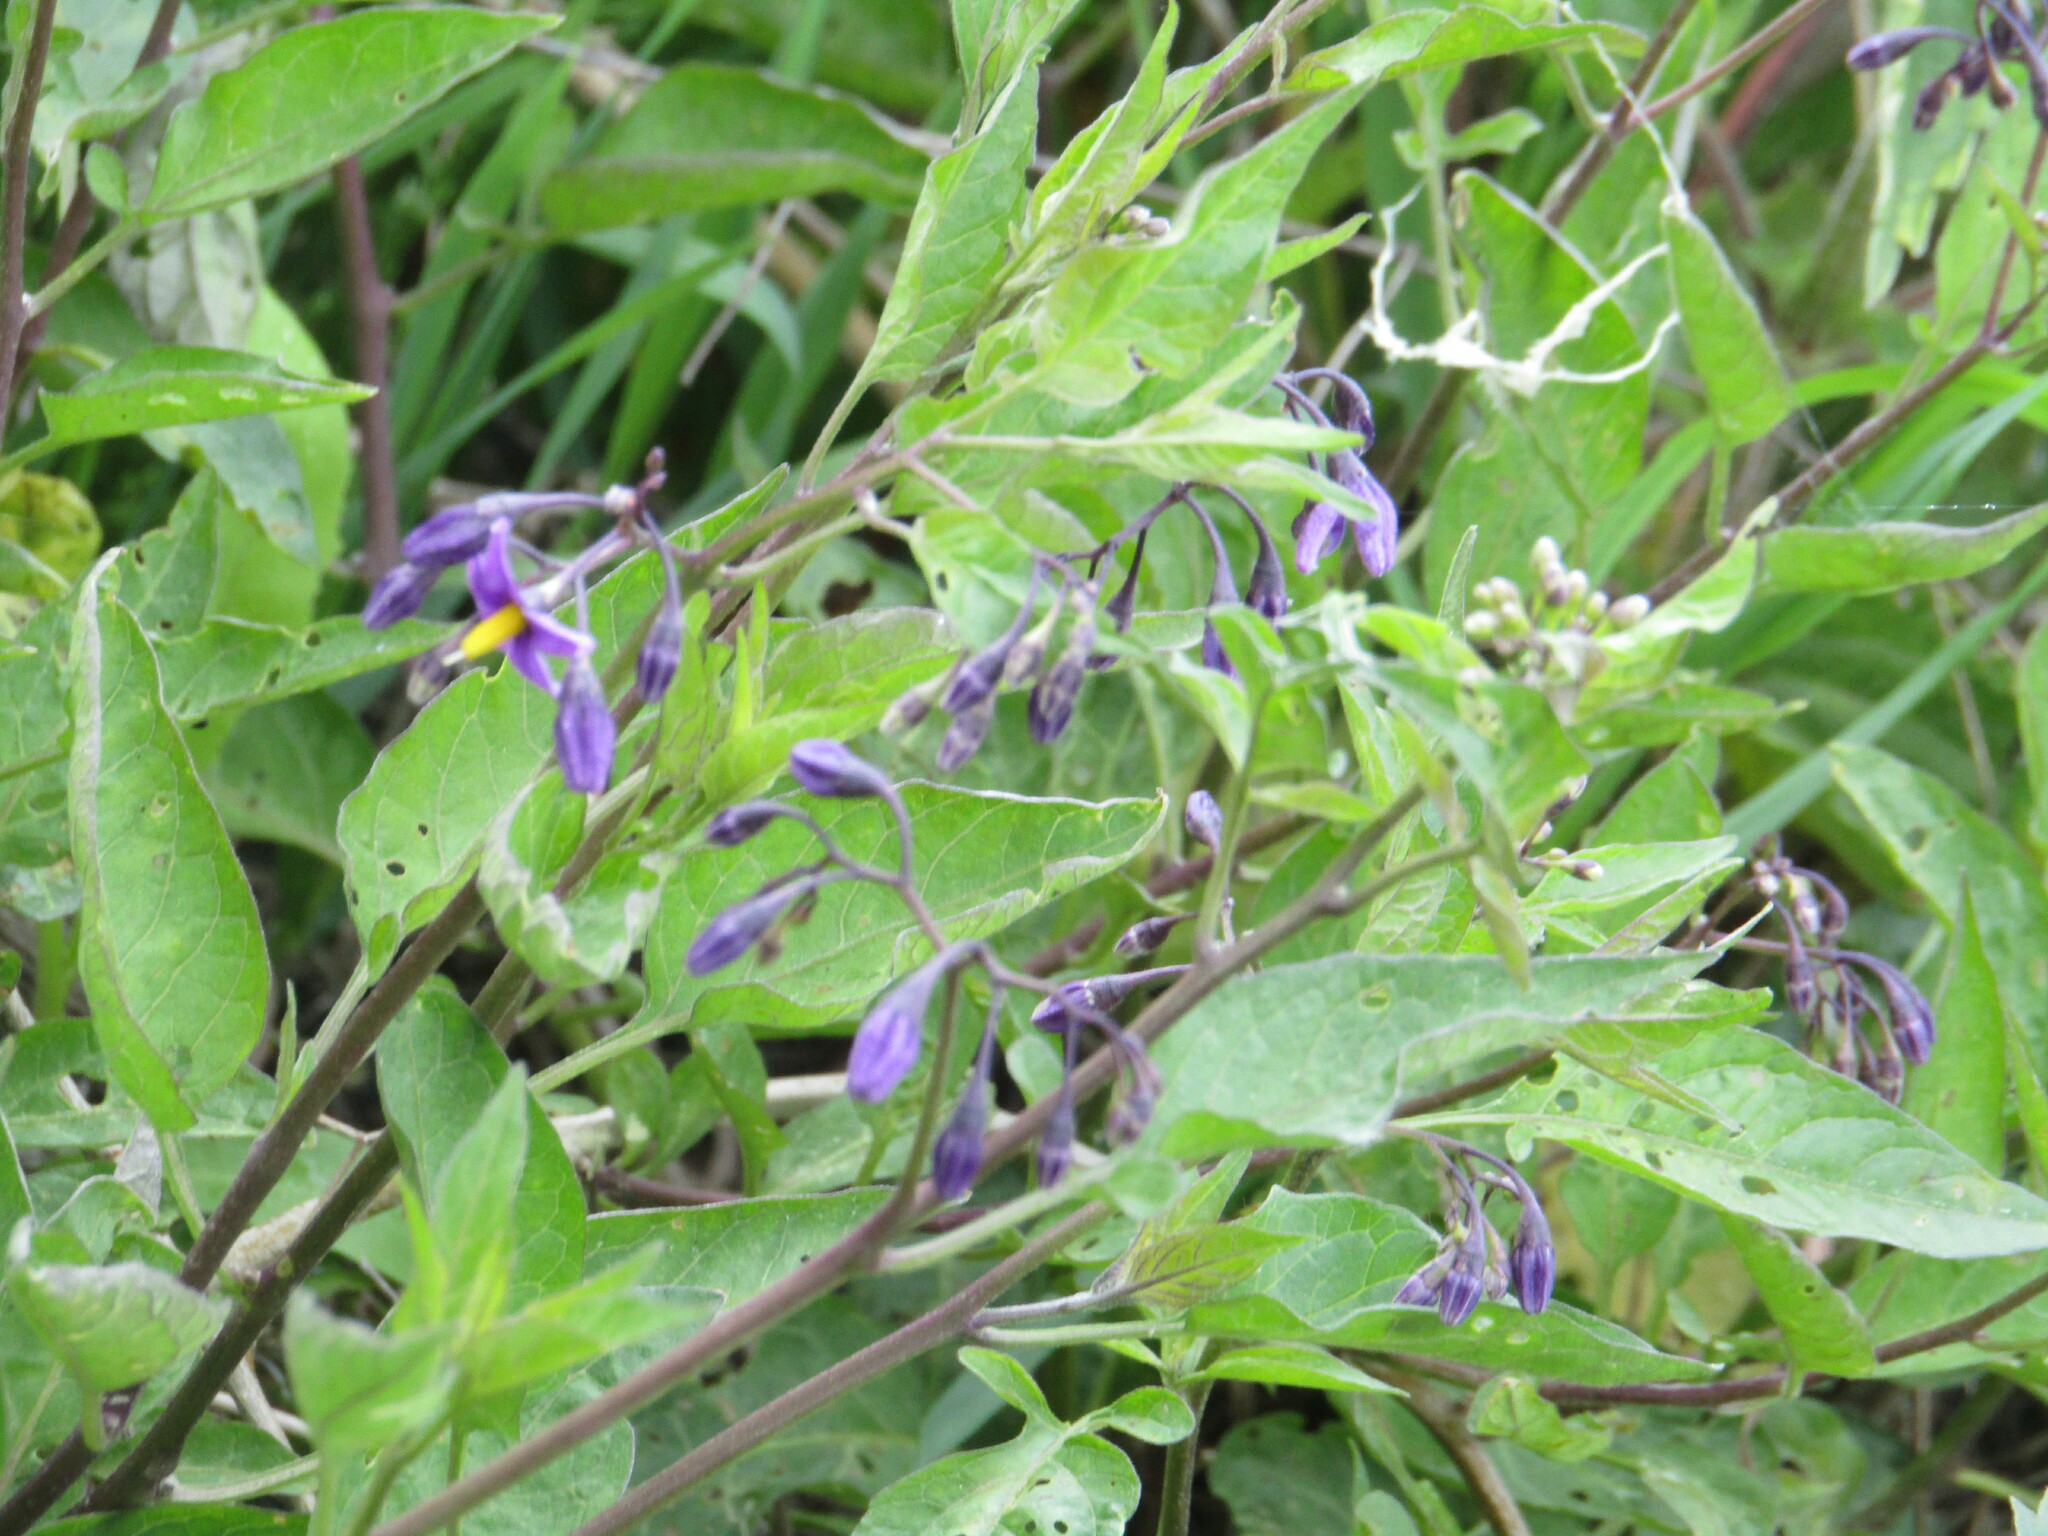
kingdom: Plantae
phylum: Tracheophyta
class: Magnoliopsida
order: Solanales
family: Solanaceae
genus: Solanum
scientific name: Solanum dulcamara
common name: Climbing nightshade
